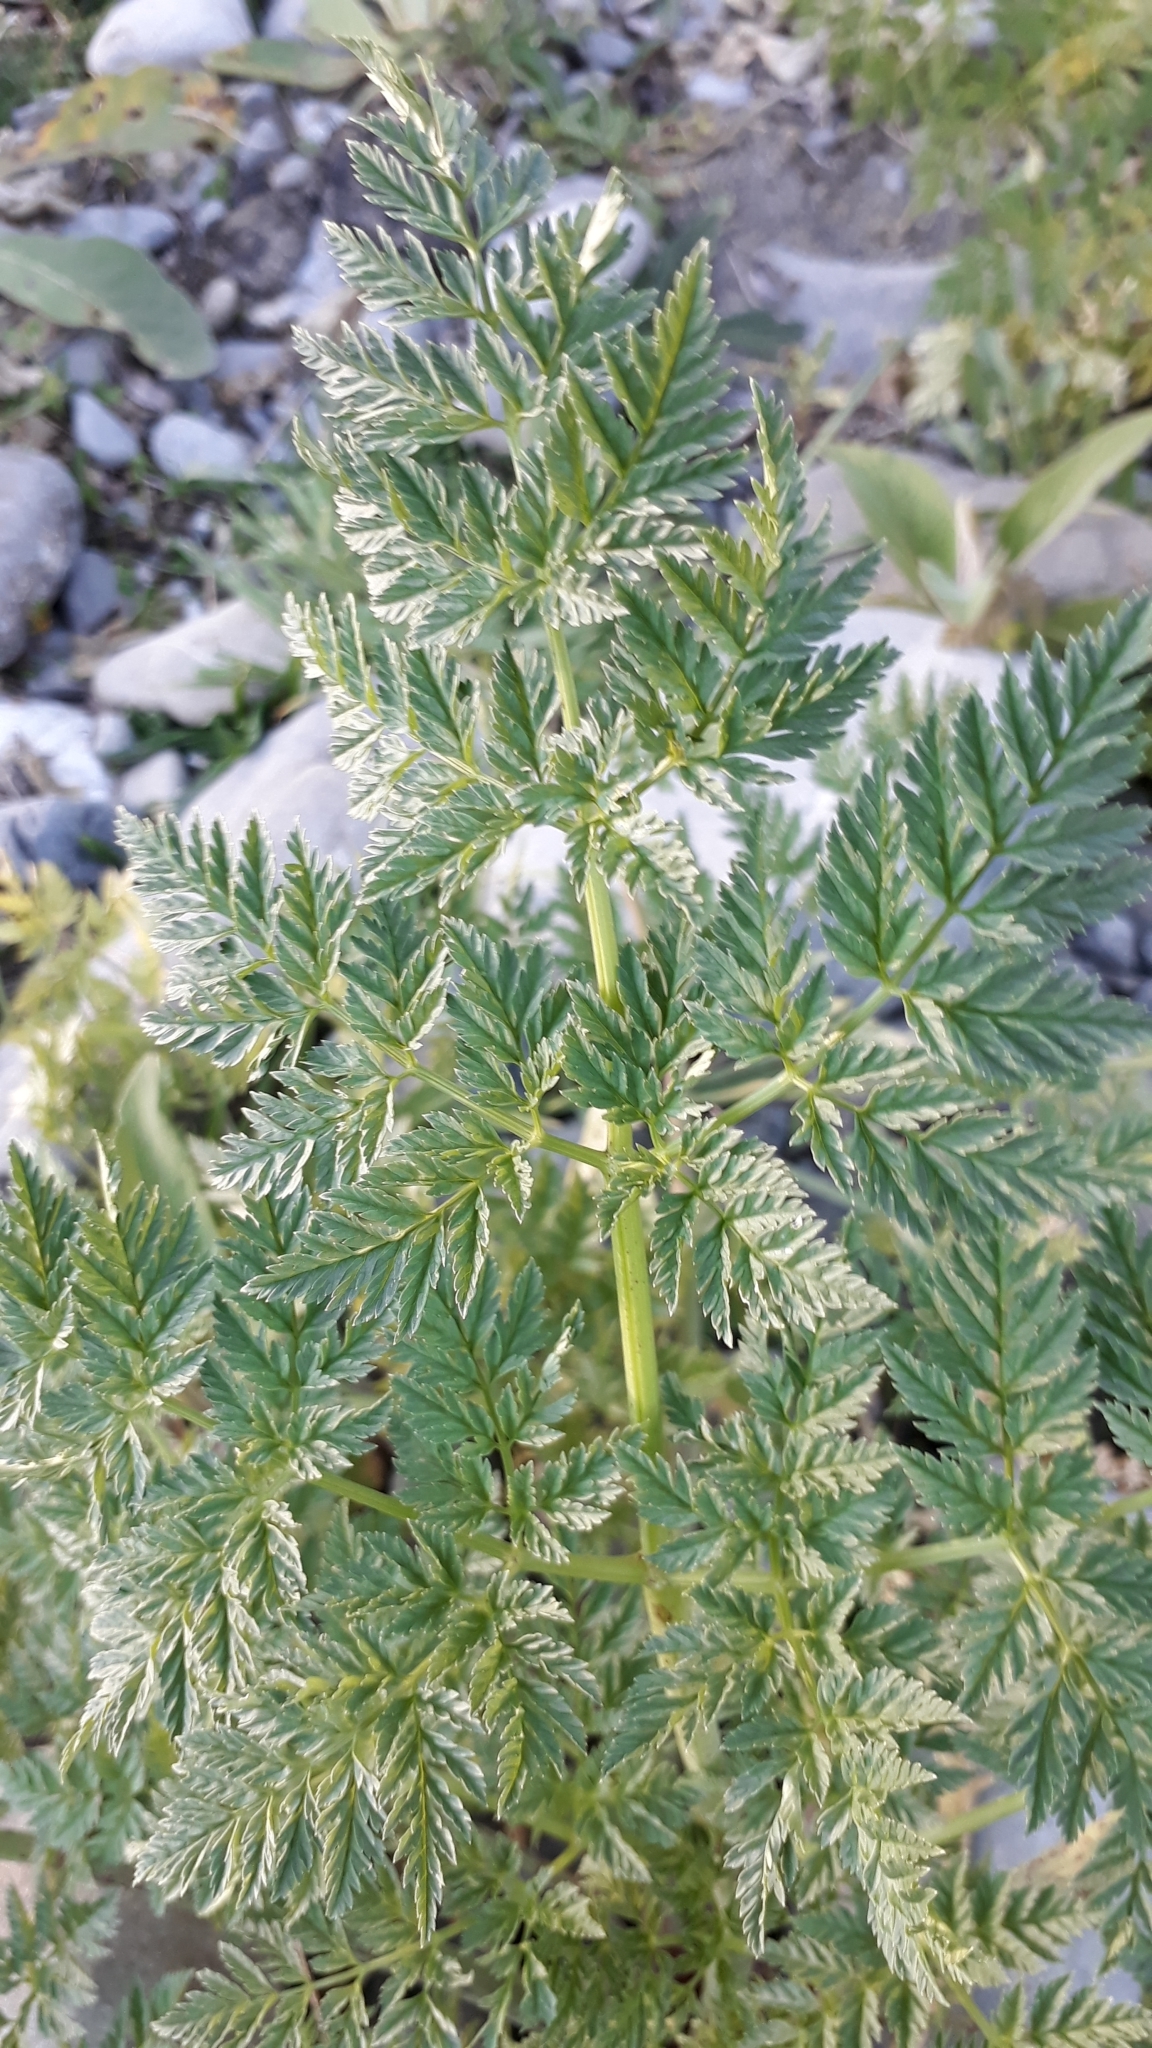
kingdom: Plantae
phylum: Tracheophyta
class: Magnoliopsida
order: Apiales
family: Apiaceae
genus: Conium
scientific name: Conium maculatum
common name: Hemlock
